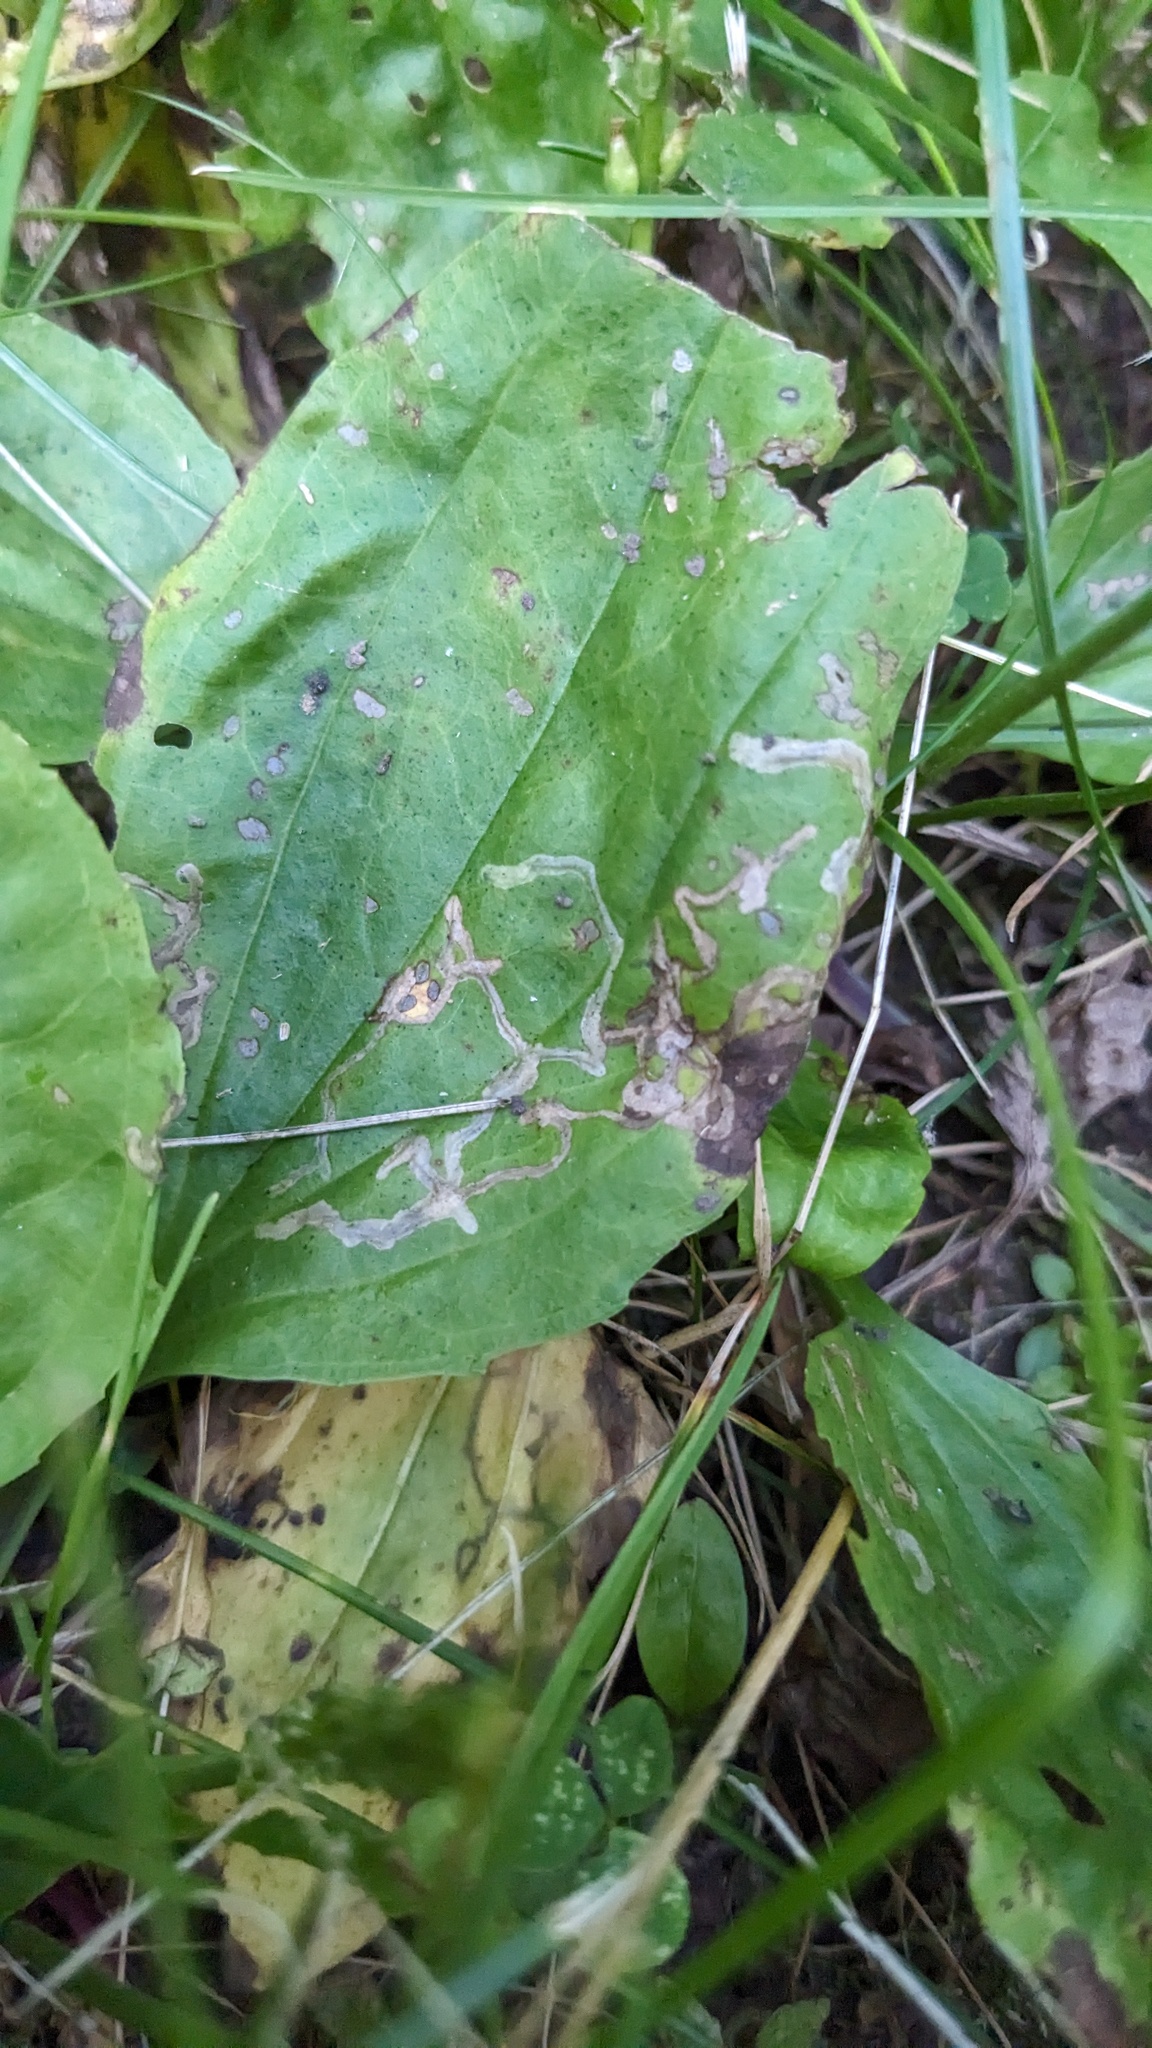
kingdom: Animalia
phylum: Arthropoda
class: Insecta
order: Coleoptera
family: Chrysomelidae
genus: Dibolia
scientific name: Dibolia borealis
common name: Northern plantain flea beetle
